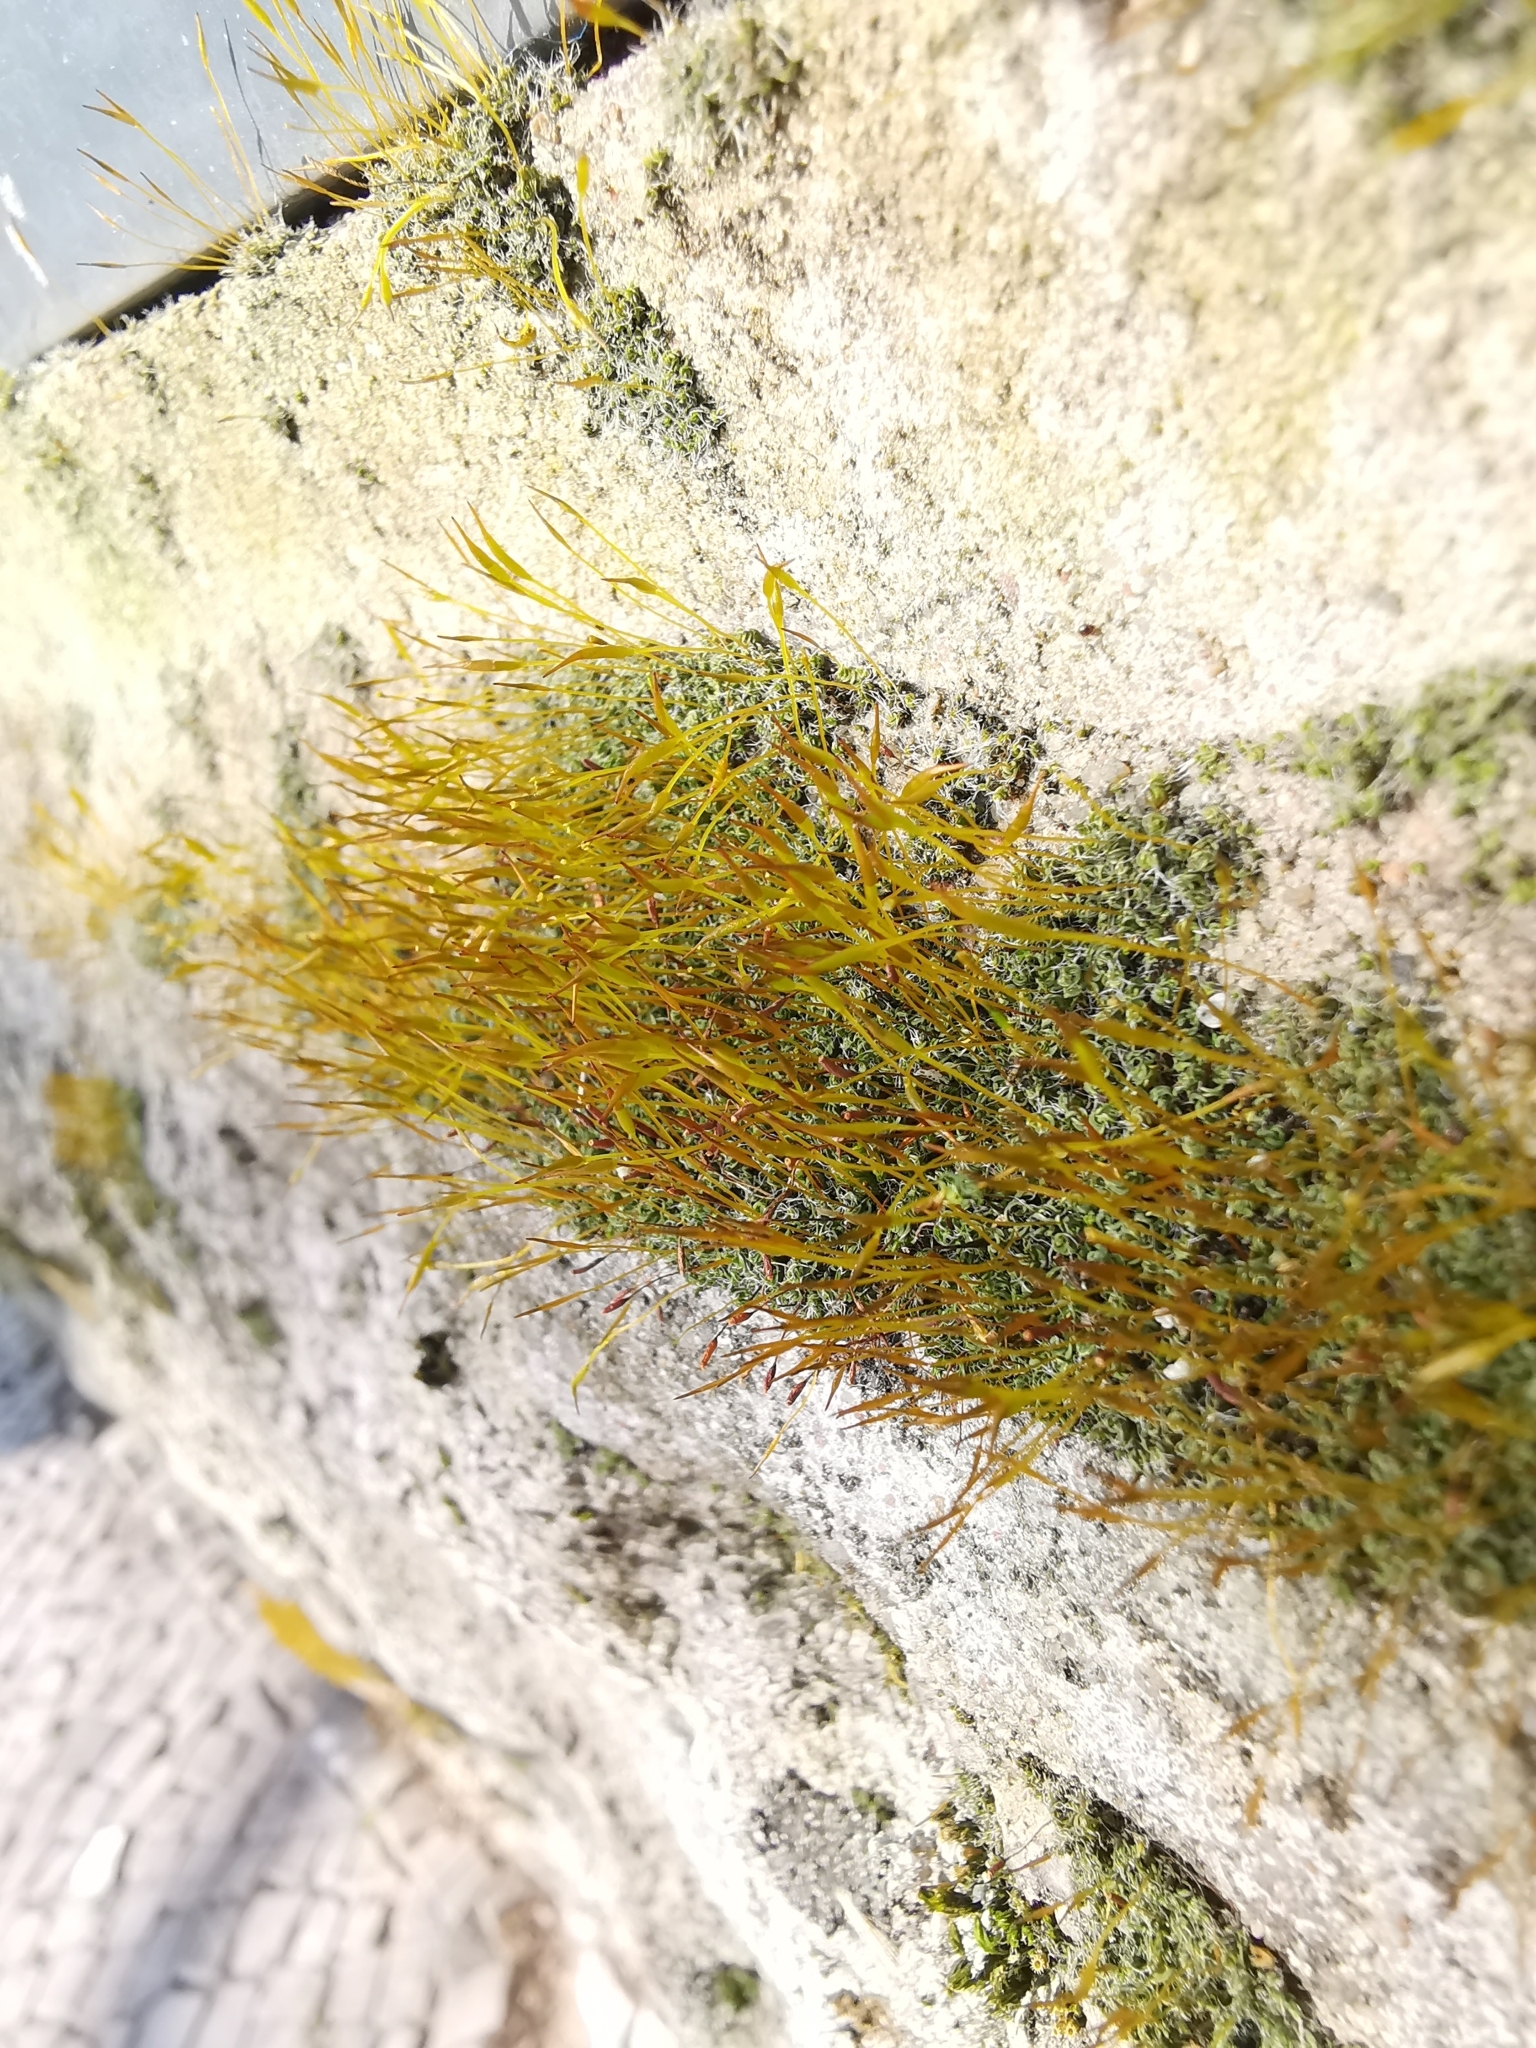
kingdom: Plantae
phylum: Bryophyta
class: Bryopsida
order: Pottiales
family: Pottiaceae
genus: Tortula
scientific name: Tortula muralis
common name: Wall screw-moss
